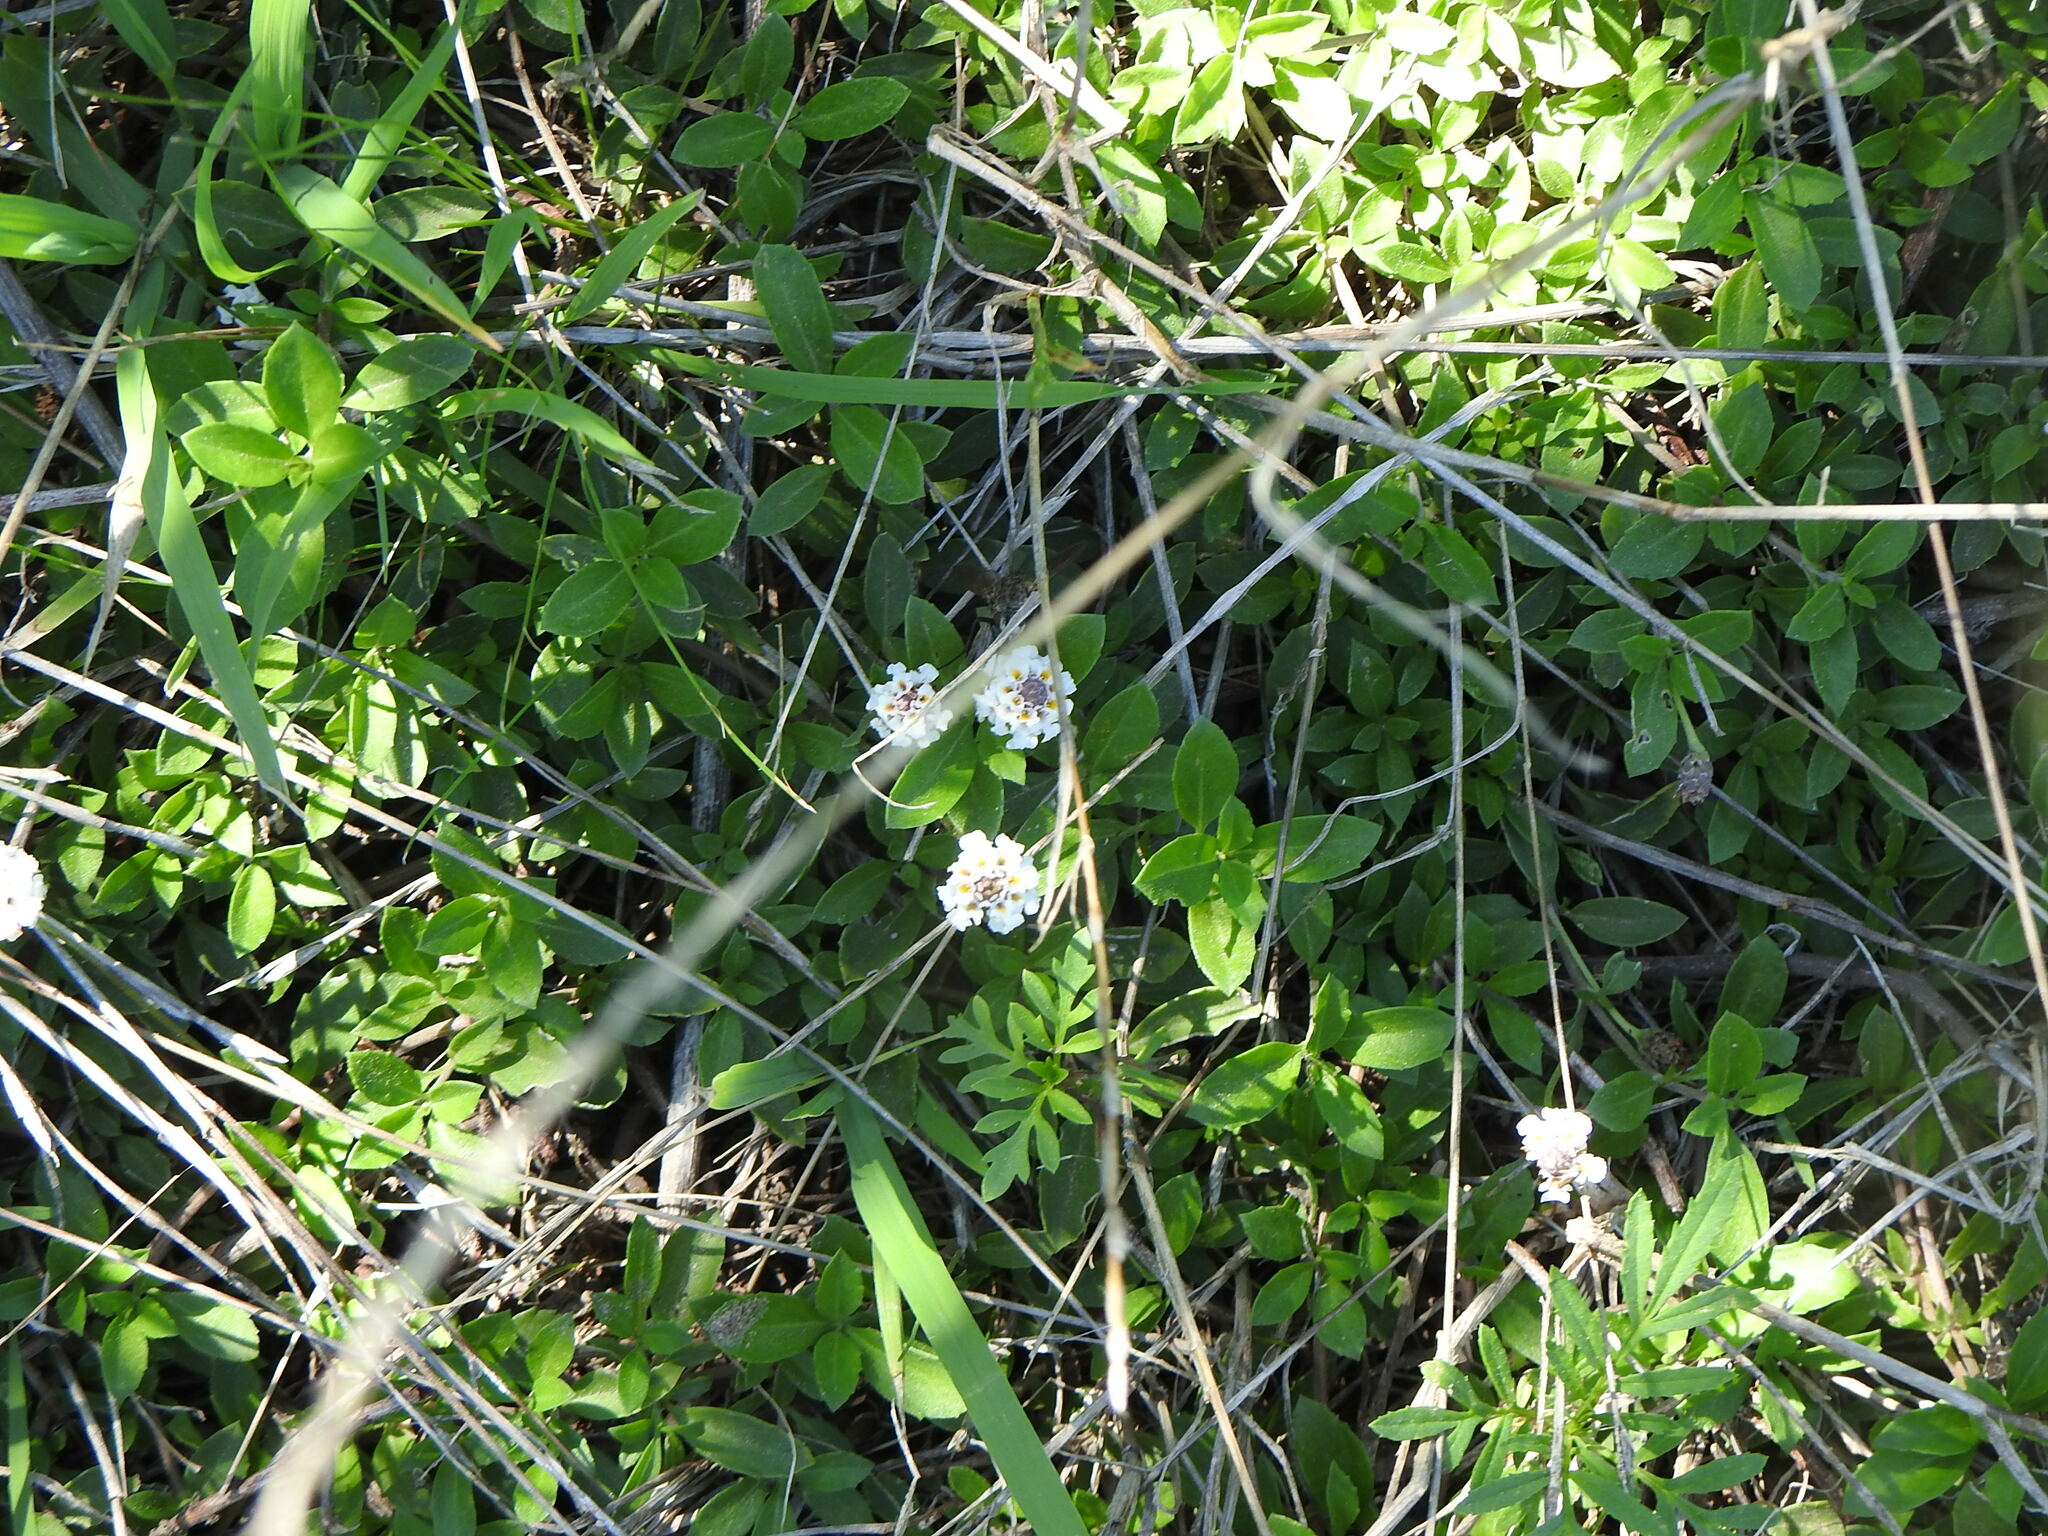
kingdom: Plantae
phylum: Tracheophyta
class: Magnoliopsida
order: Lamiales
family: Verbenaceae
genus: Phyla
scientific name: Phyla nodiflora
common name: Frogfruit
